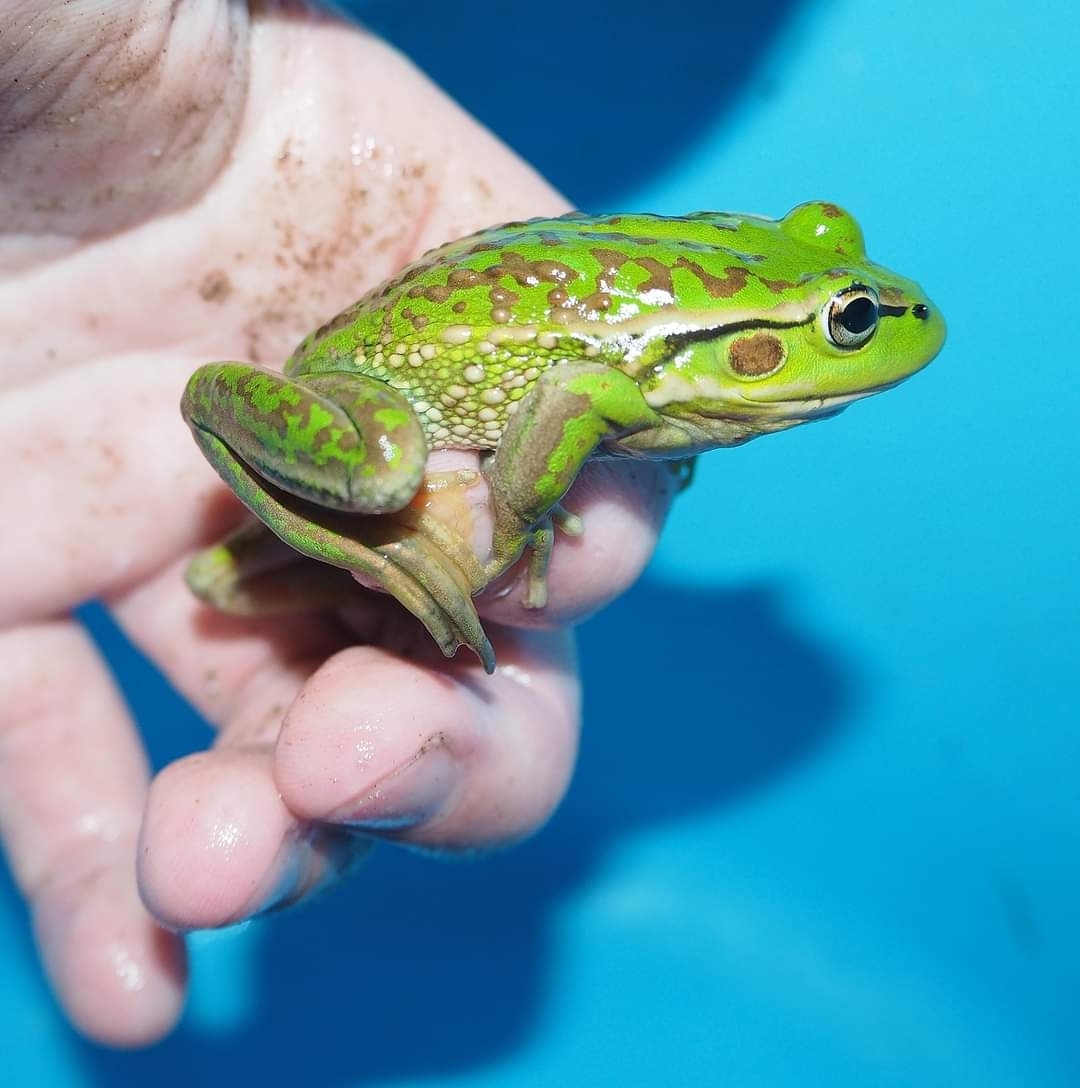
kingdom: Animalia
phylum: Chordata
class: Amphibia
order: Anura
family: Pelodryadidae
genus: Ranoidea
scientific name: Ranoidea raniformis
